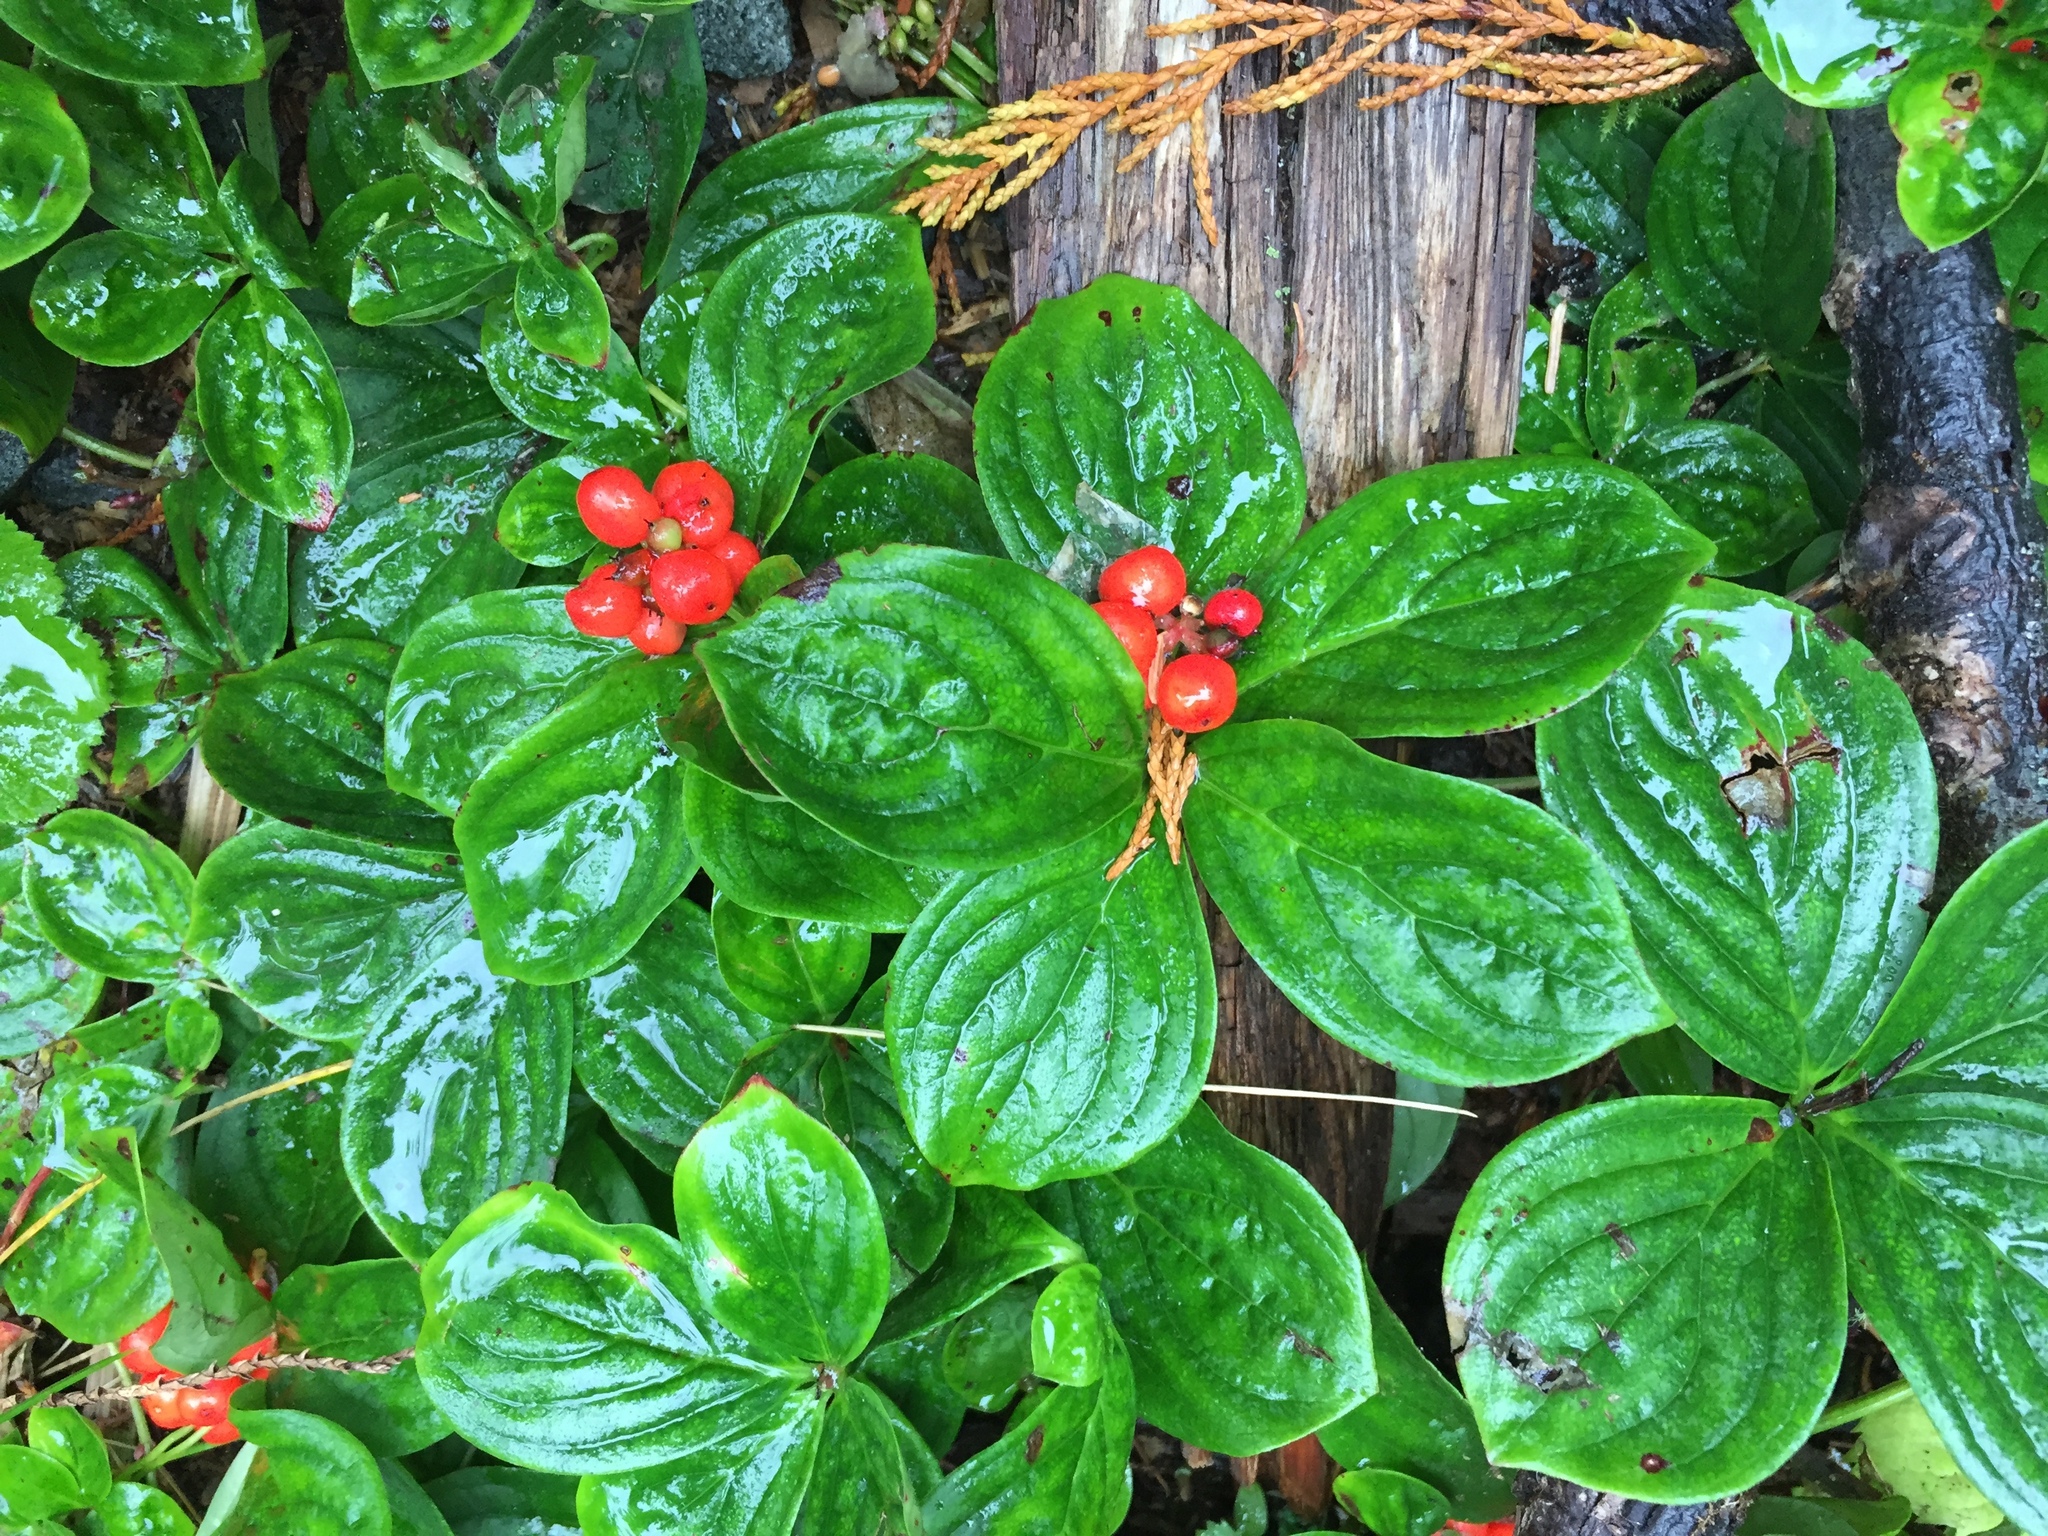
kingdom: Plantae
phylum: Tracheophyta
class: Magnoliopsida
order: Cornales
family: Cornaceae
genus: Cornus
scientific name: Cornus unalaschkensis
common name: Alaska bunchberry
